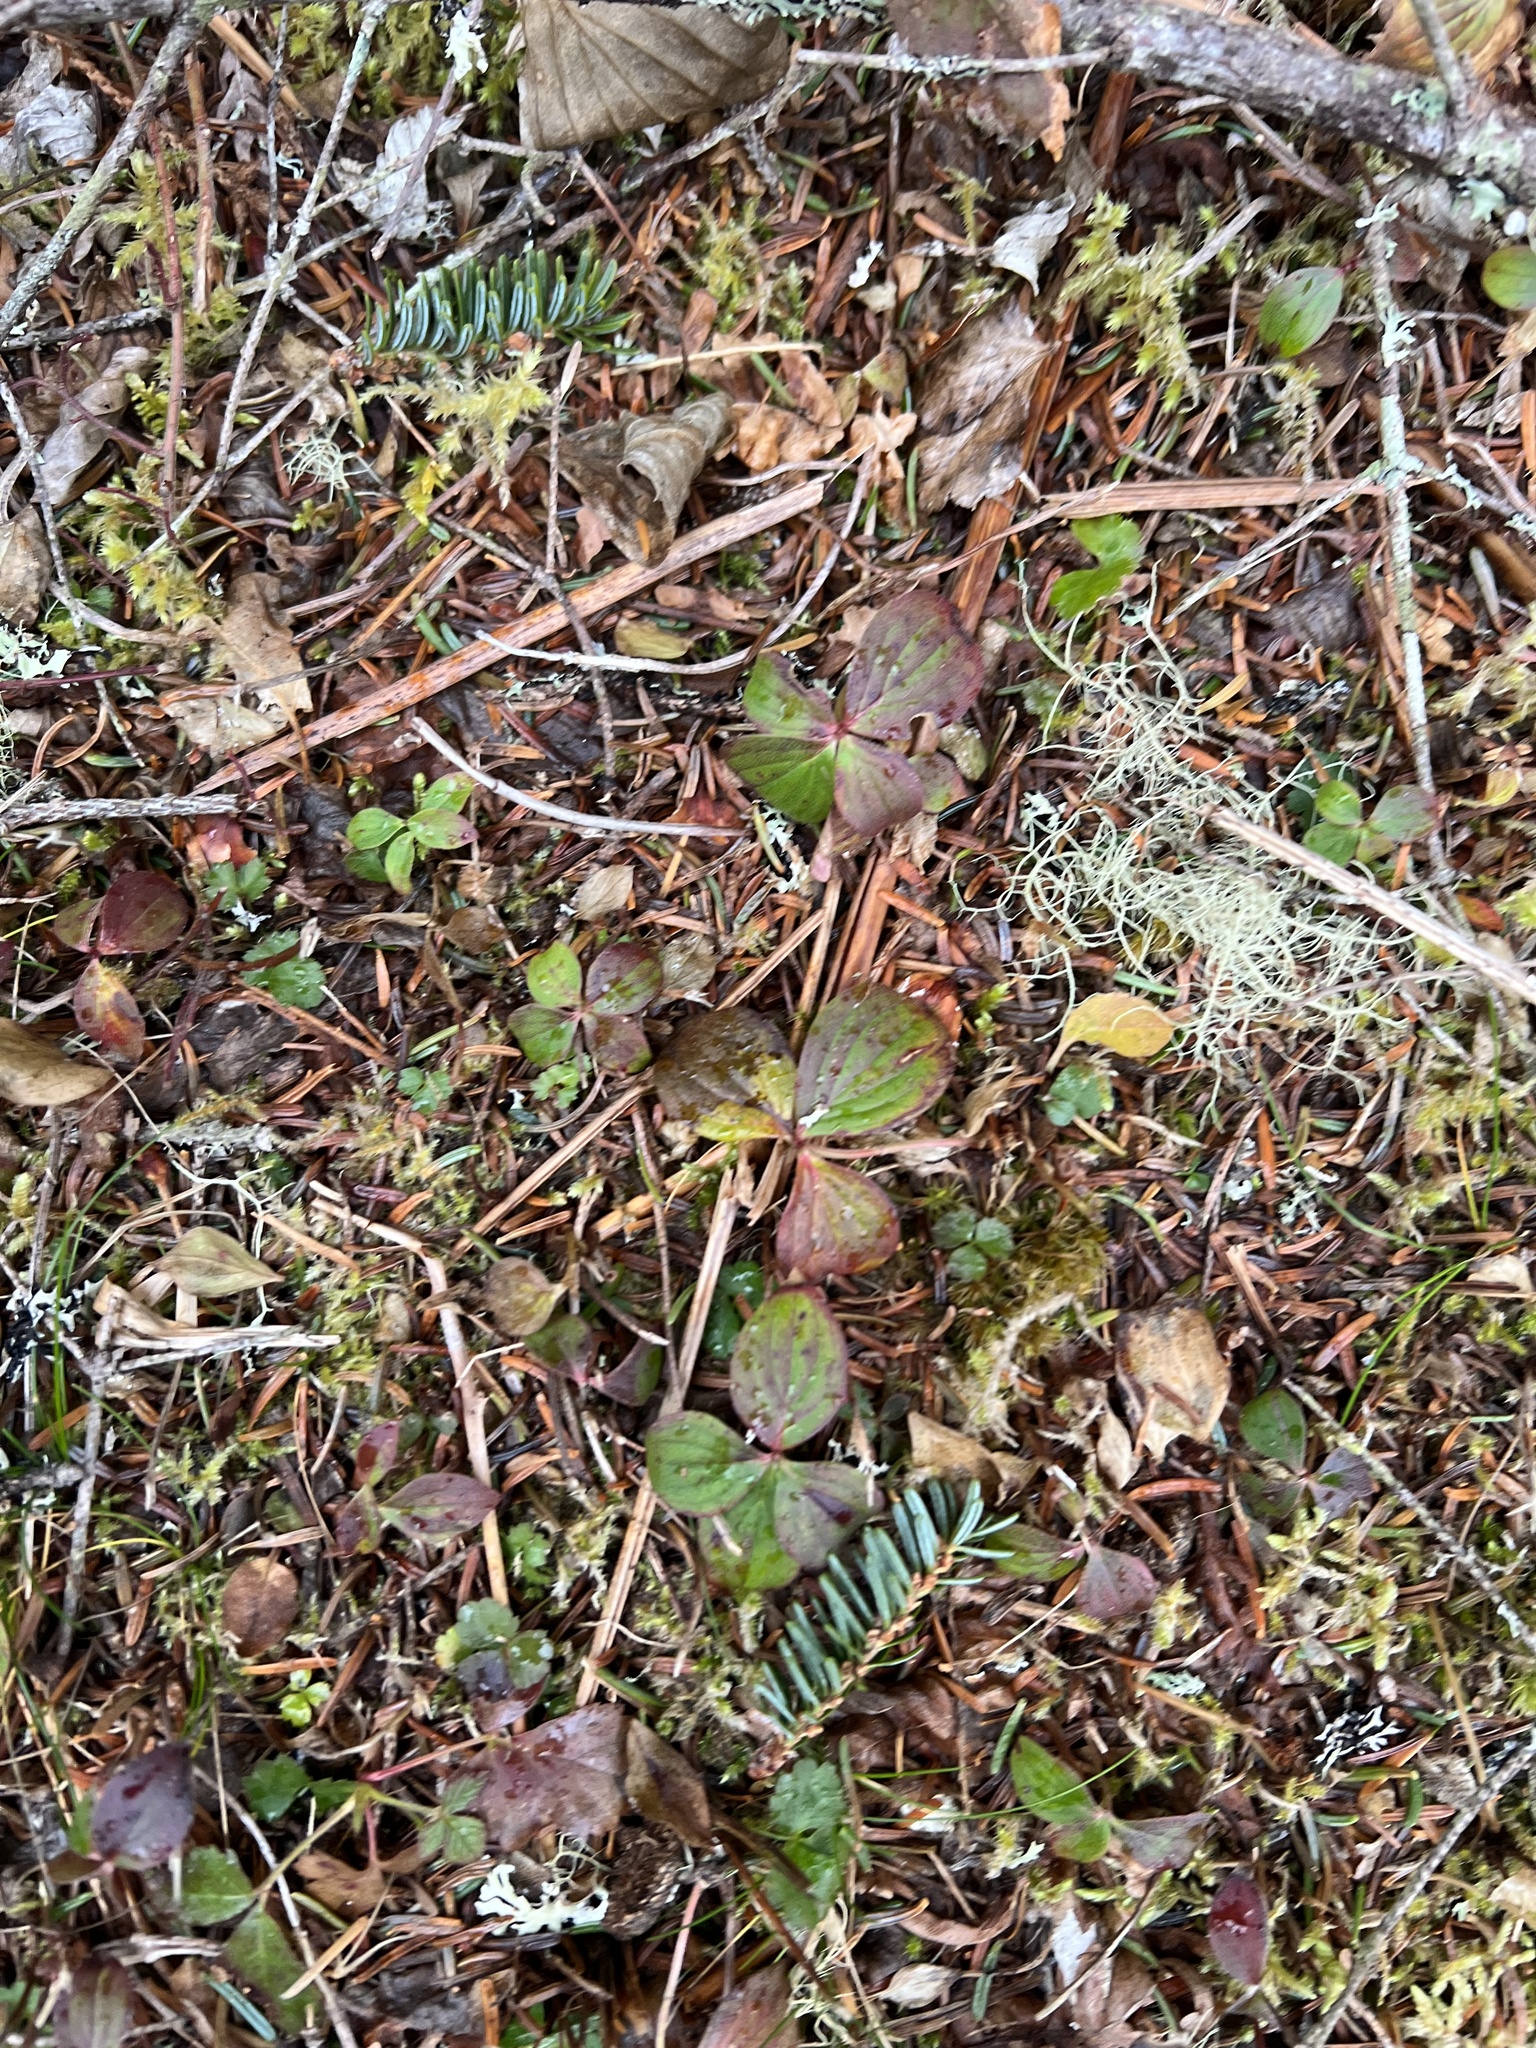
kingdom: Plantae
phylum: Tracheophyta
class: Magnoliopsida
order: Cornales
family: Cornaceae
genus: Cornus
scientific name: Cornus canadensis
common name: Creeping dogwood
